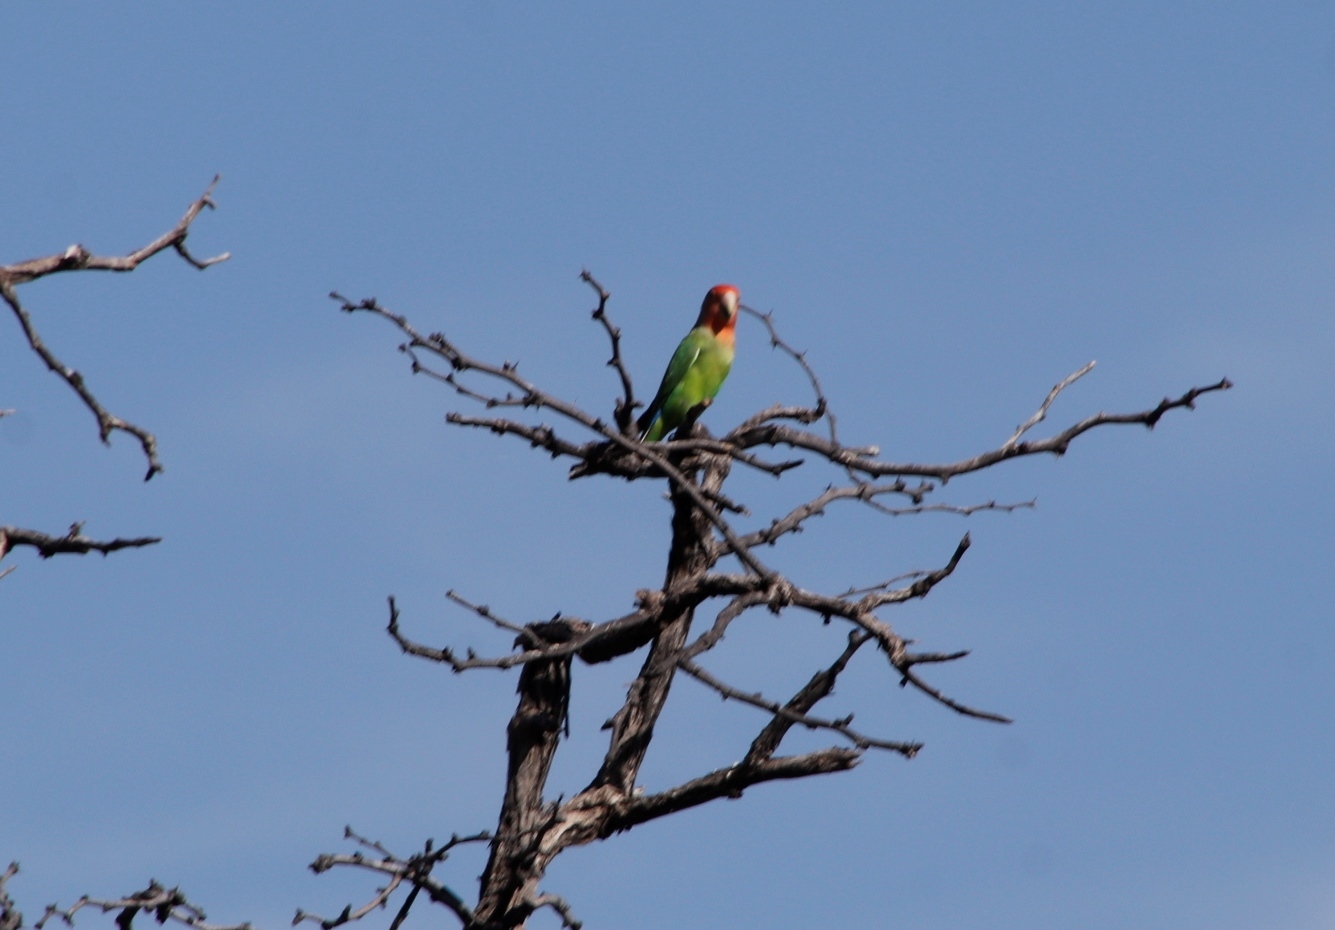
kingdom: Animalia
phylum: Chordata
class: Aves
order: Psittaciformes
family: Psittacidae
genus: Agapornis
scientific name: Agapornis roseicollis
